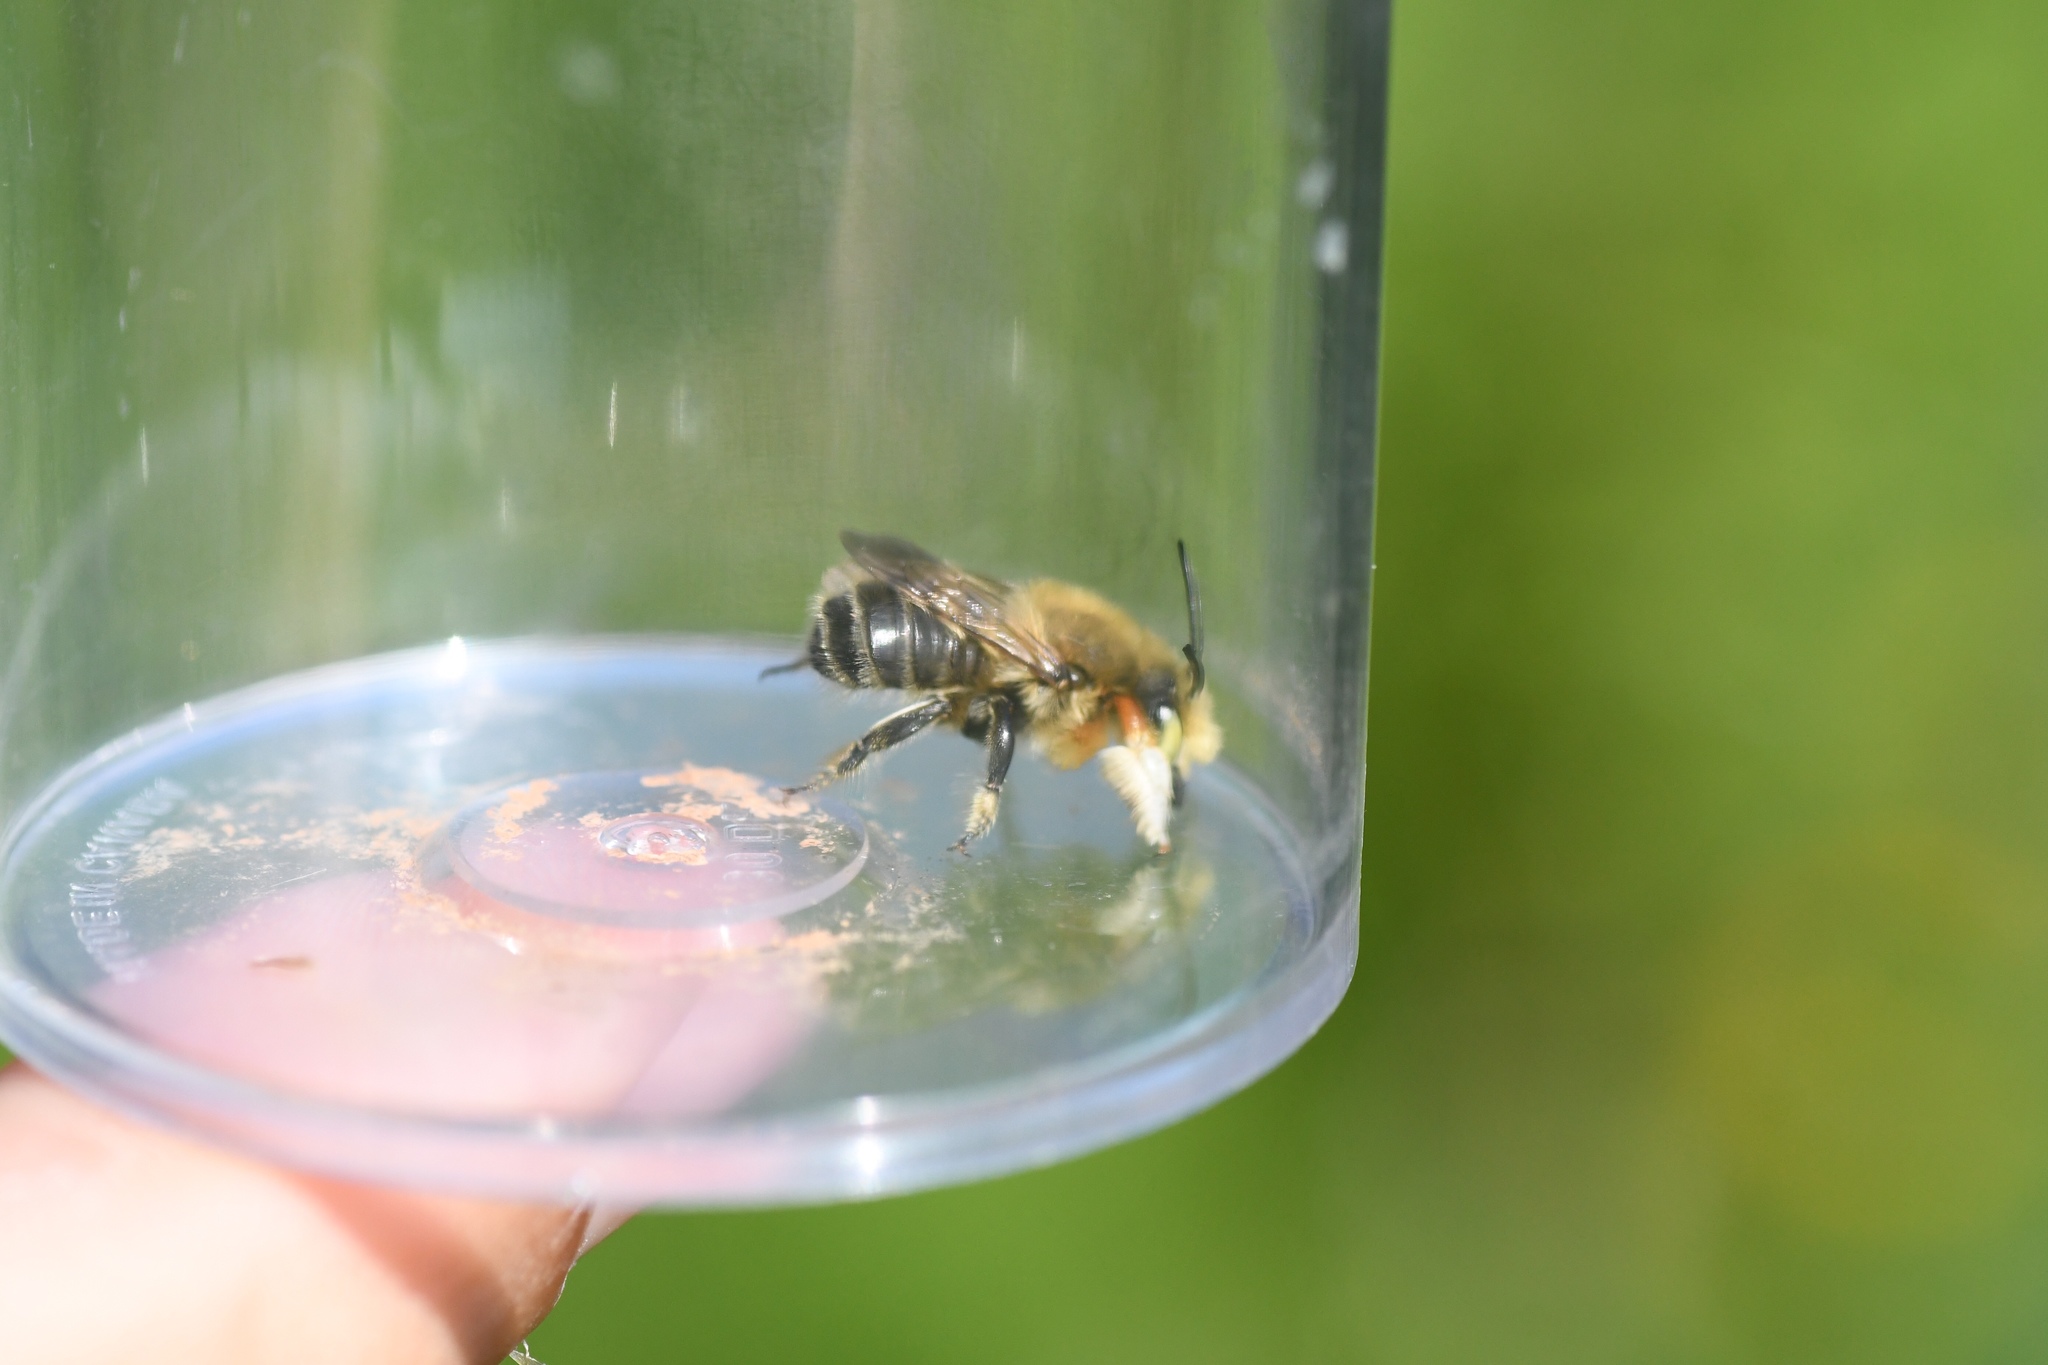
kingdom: Animalia
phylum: Arthropoda
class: Insecta
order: Hymenoptera
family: Megachilidae
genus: Megachile
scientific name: Megachile latimanus
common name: Leafcutting bee
